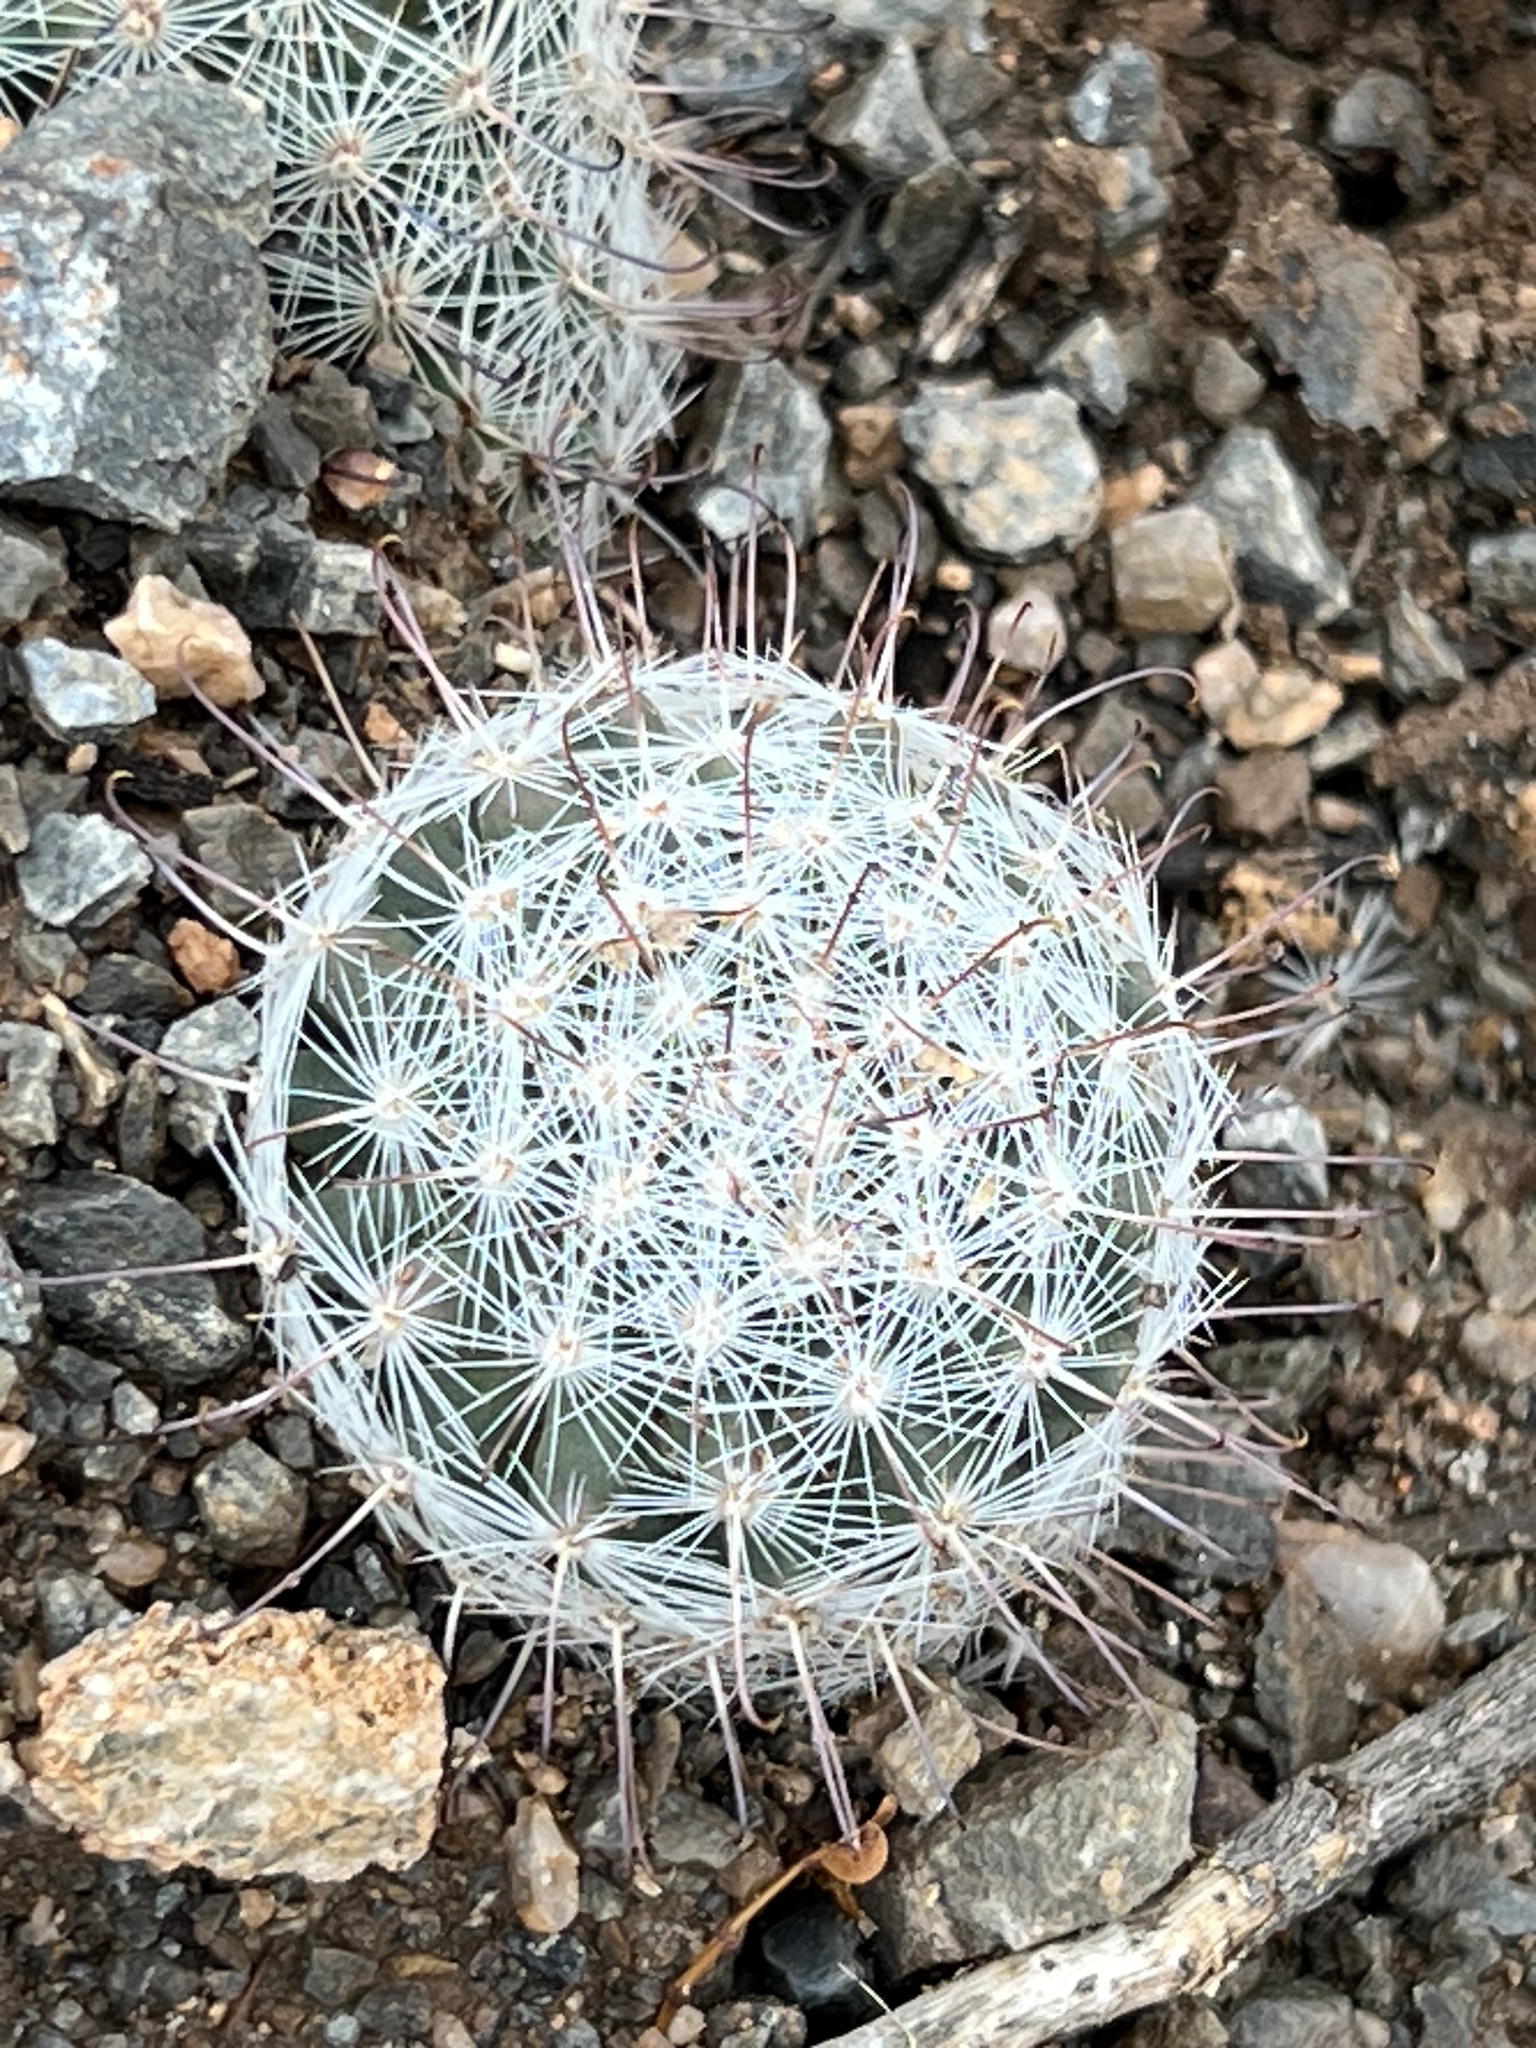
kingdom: Plantae
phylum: Tracheophyta
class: Magnoliopsida
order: Caryophyllales
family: Cactaceae
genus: Cochemiea
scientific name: Cochemiea grahamii
